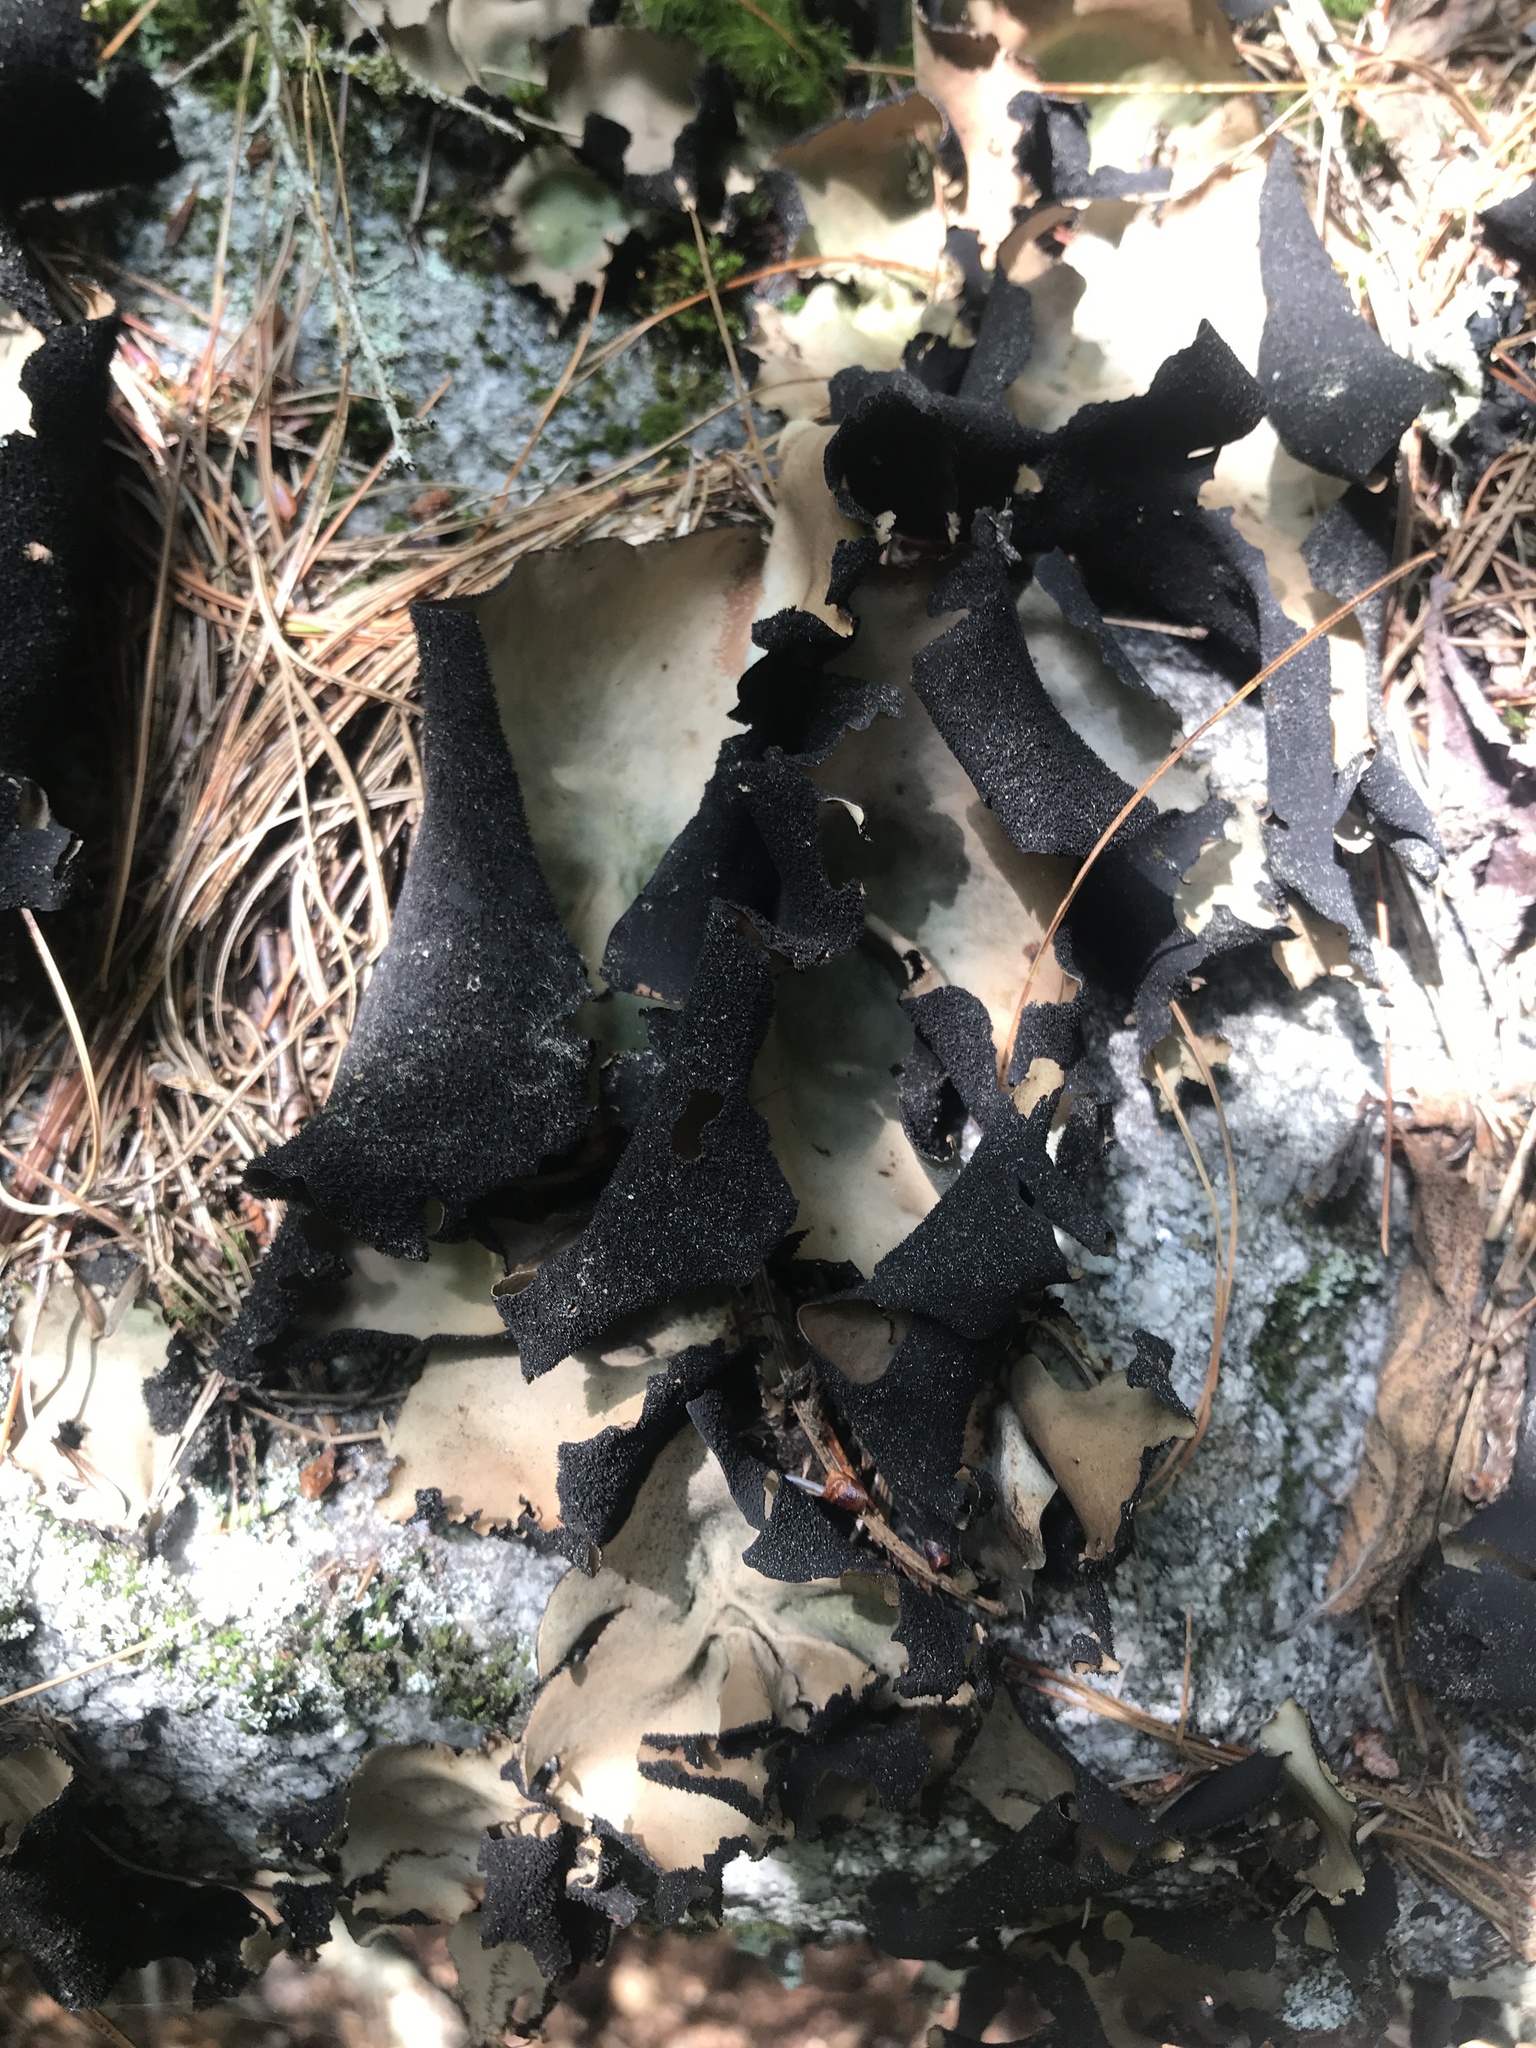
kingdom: Fungi
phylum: Ascomycota
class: Lecanoromycetes
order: Umbilicariales
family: Umbilicariaceae
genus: Umbilicaria
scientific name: Umbilicaria mammulata
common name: Smooth rock tripe
